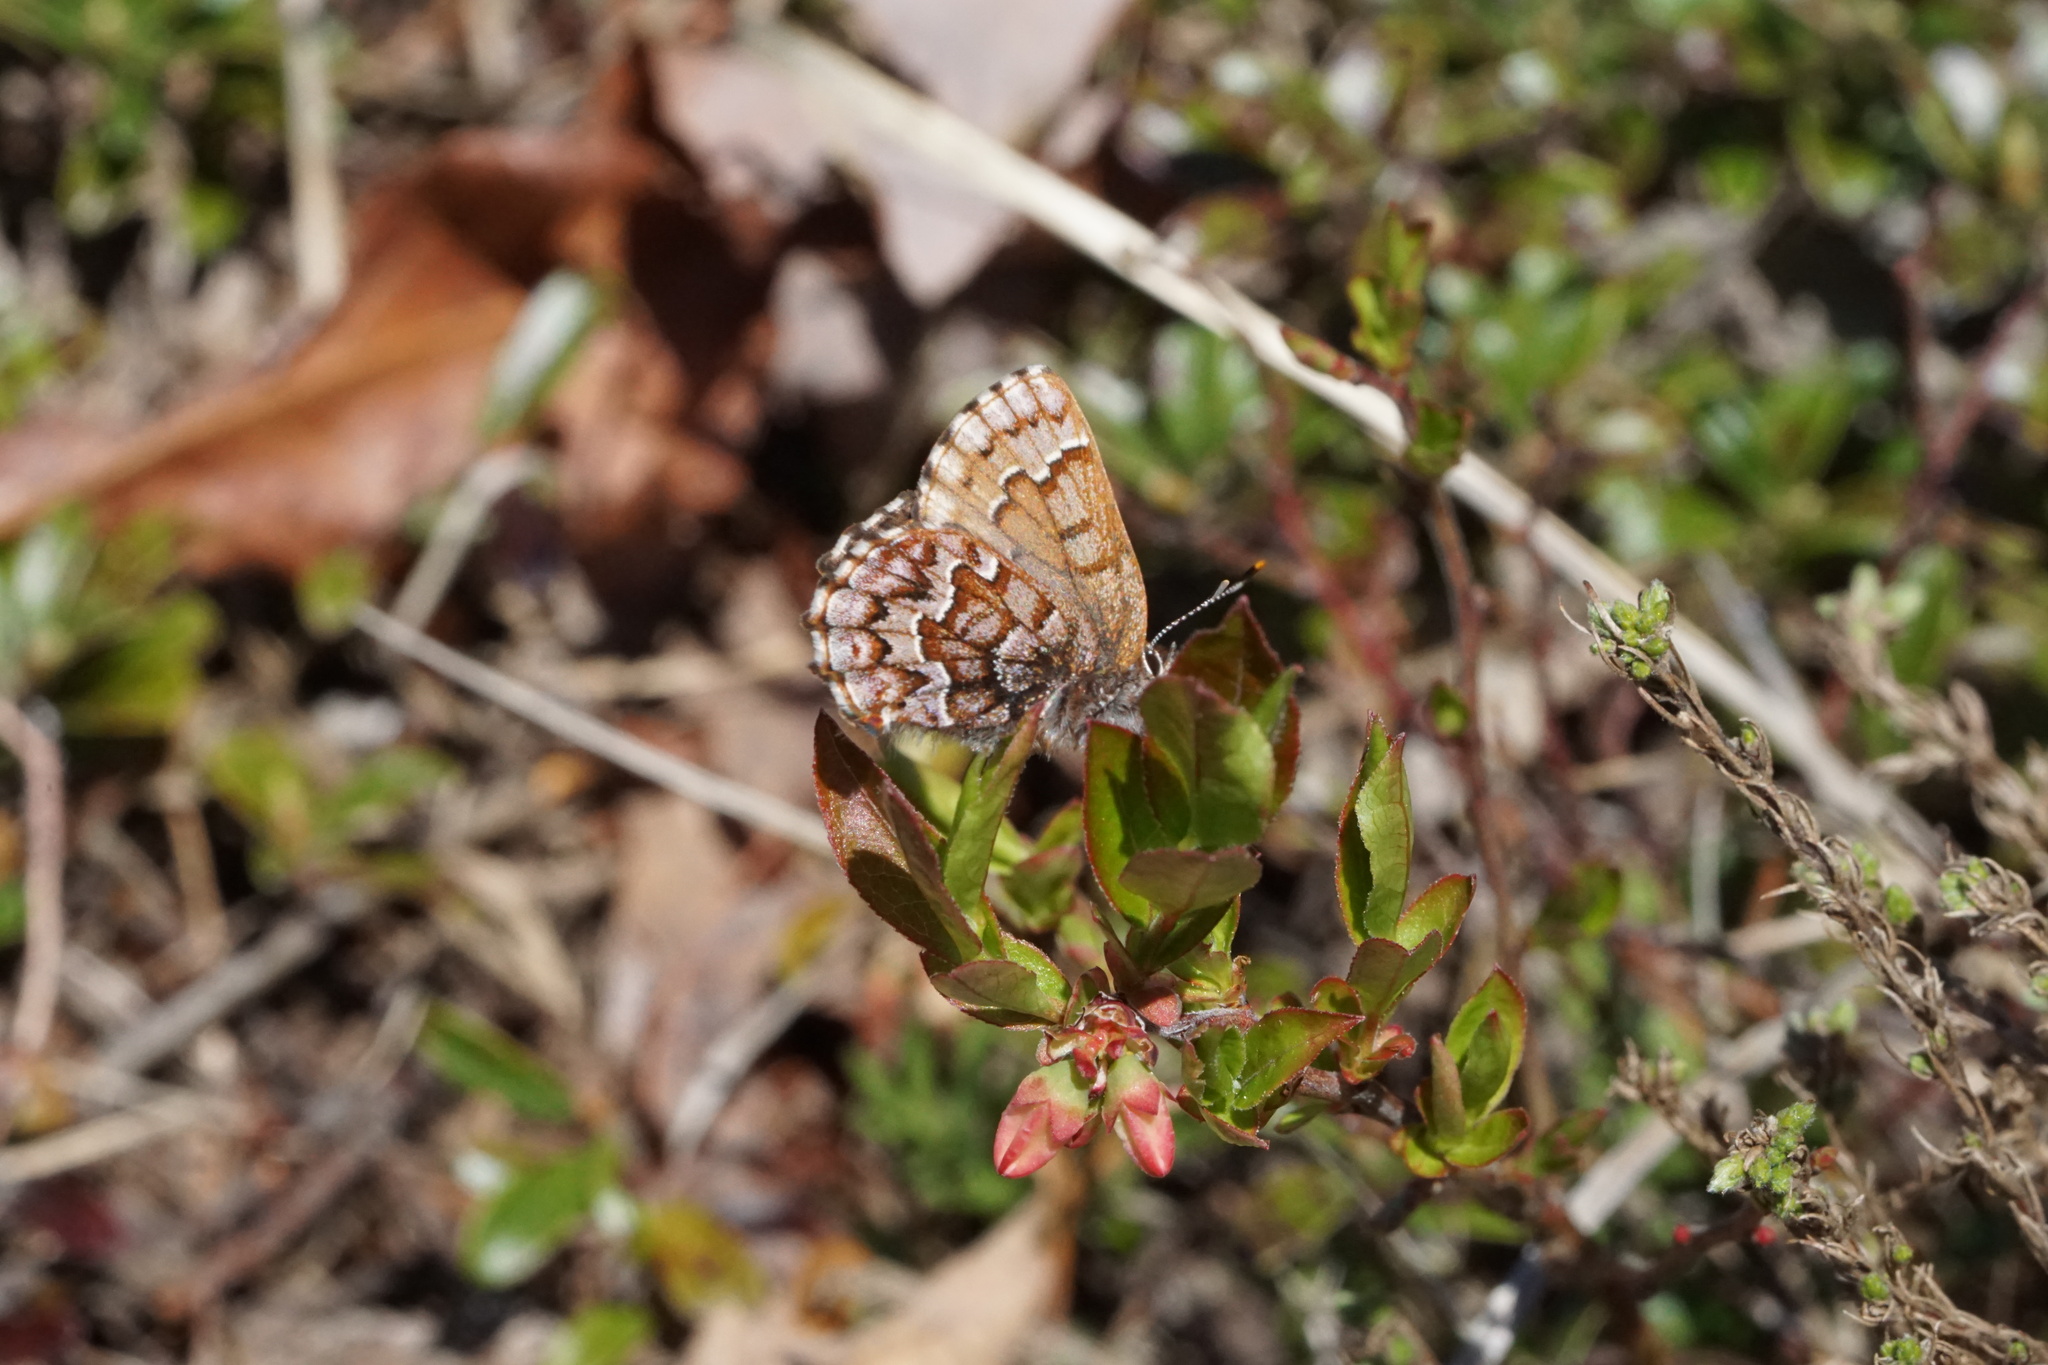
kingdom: Animalia
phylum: Arthropoda
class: Insecta
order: Lepidoptera
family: Lycaenidae
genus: Incisalia
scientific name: Incisalia niphon
